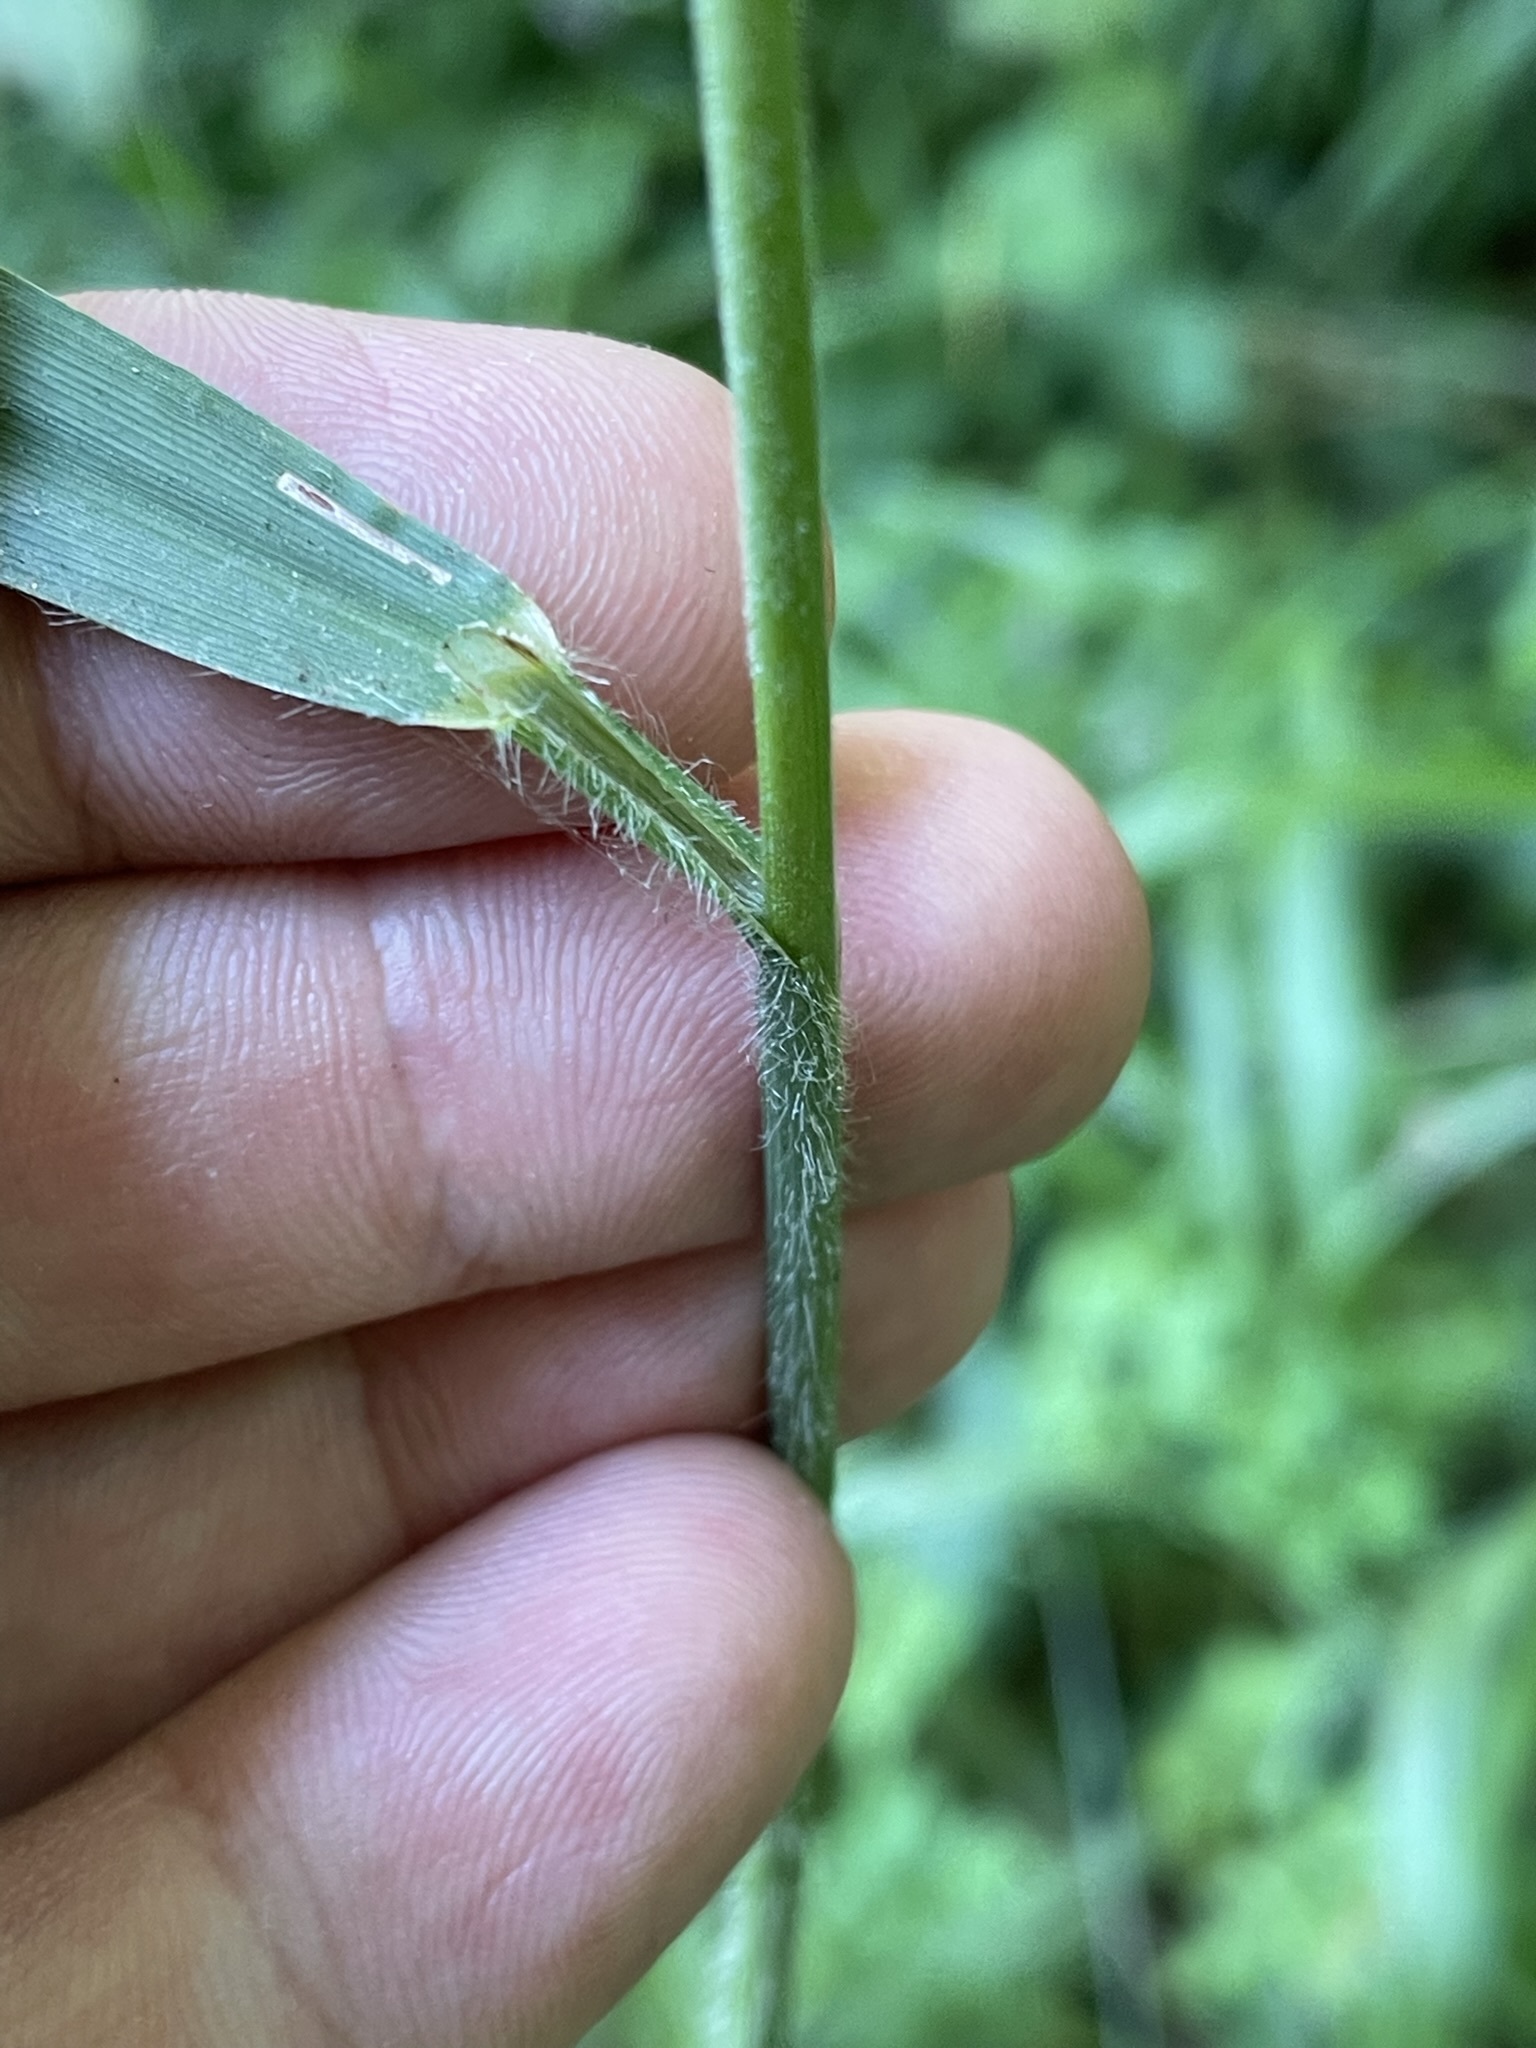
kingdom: Plantae
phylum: Tracheophyta
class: Liliopsida
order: Poales
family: Poaceae
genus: Bromus
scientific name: Bromus ramosus
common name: Hairy brome
